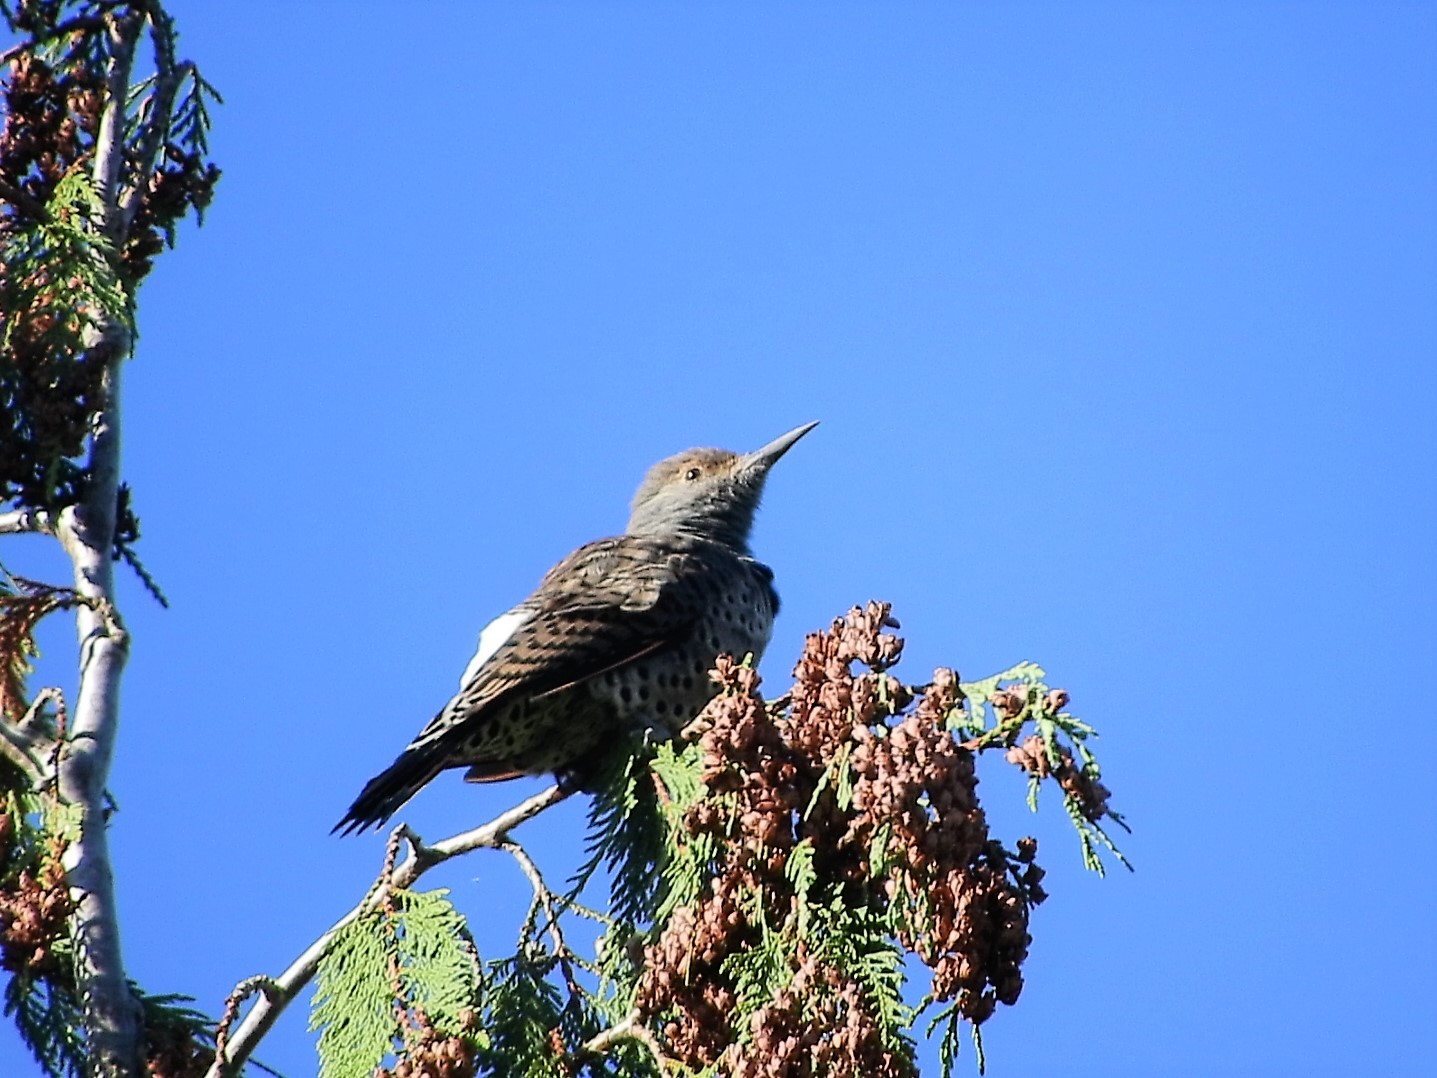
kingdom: Animalia
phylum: Chordata
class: Aves
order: Piciformes
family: Picidae
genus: Colaptes
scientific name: Colaptes auratus
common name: Northern flicker
